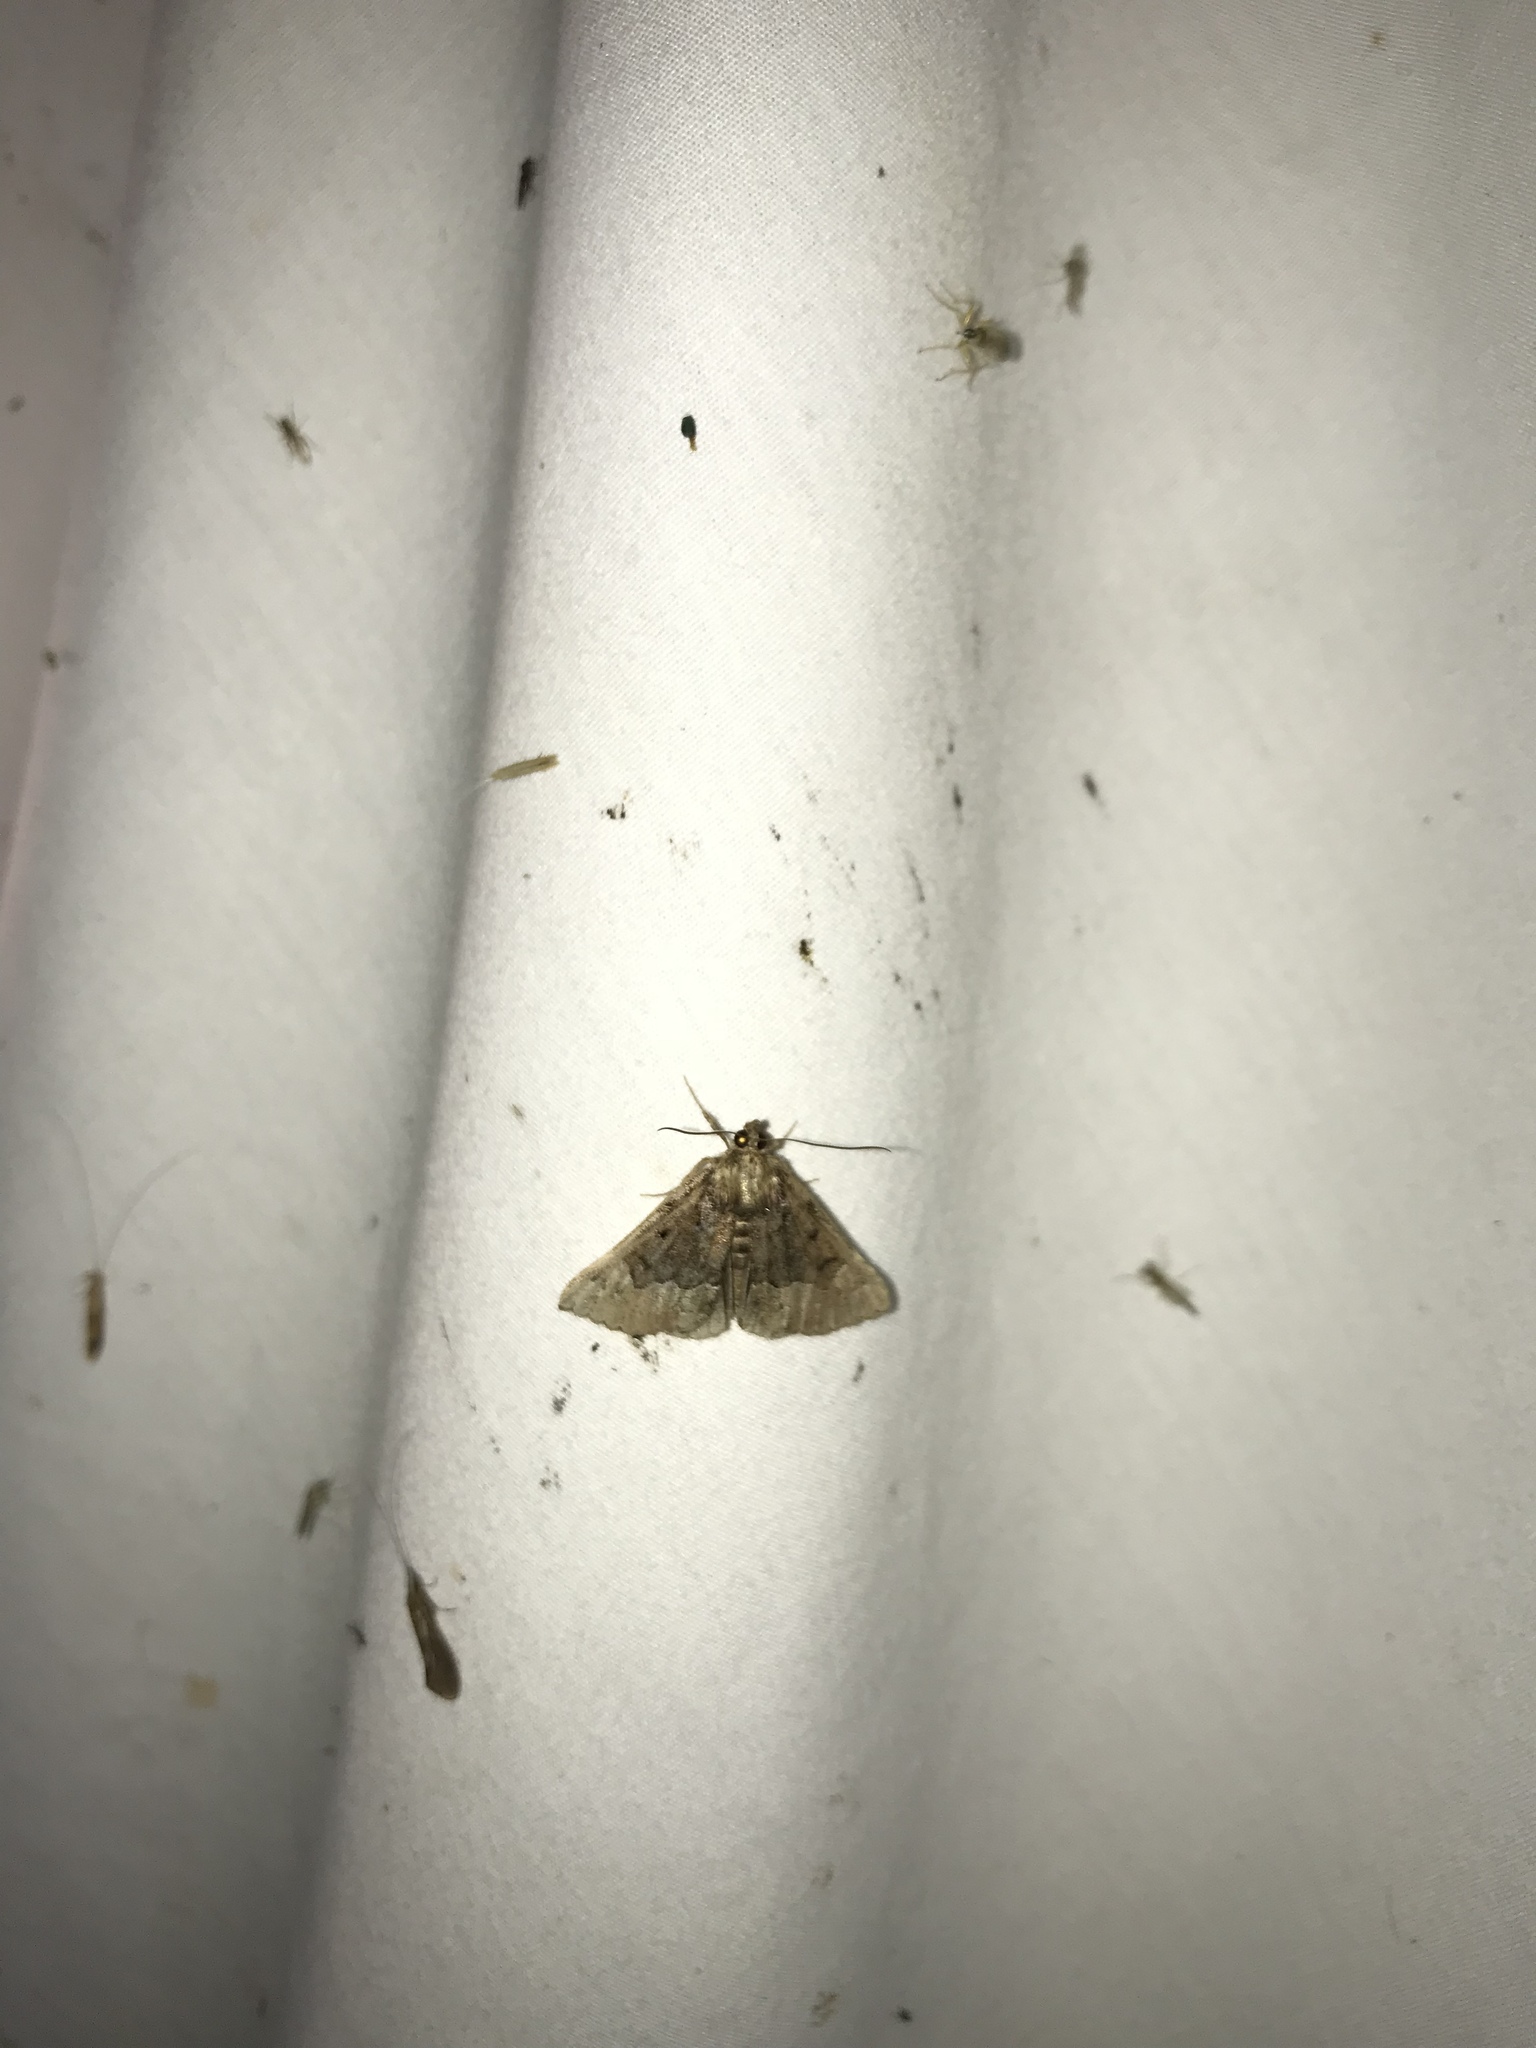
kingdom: Animalia
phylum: Arthropoda
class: Insecta
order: Lepidoptera
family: Erebidae
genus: Hypena
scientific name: Hypena palparia
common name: Mottled bomolocha moth
